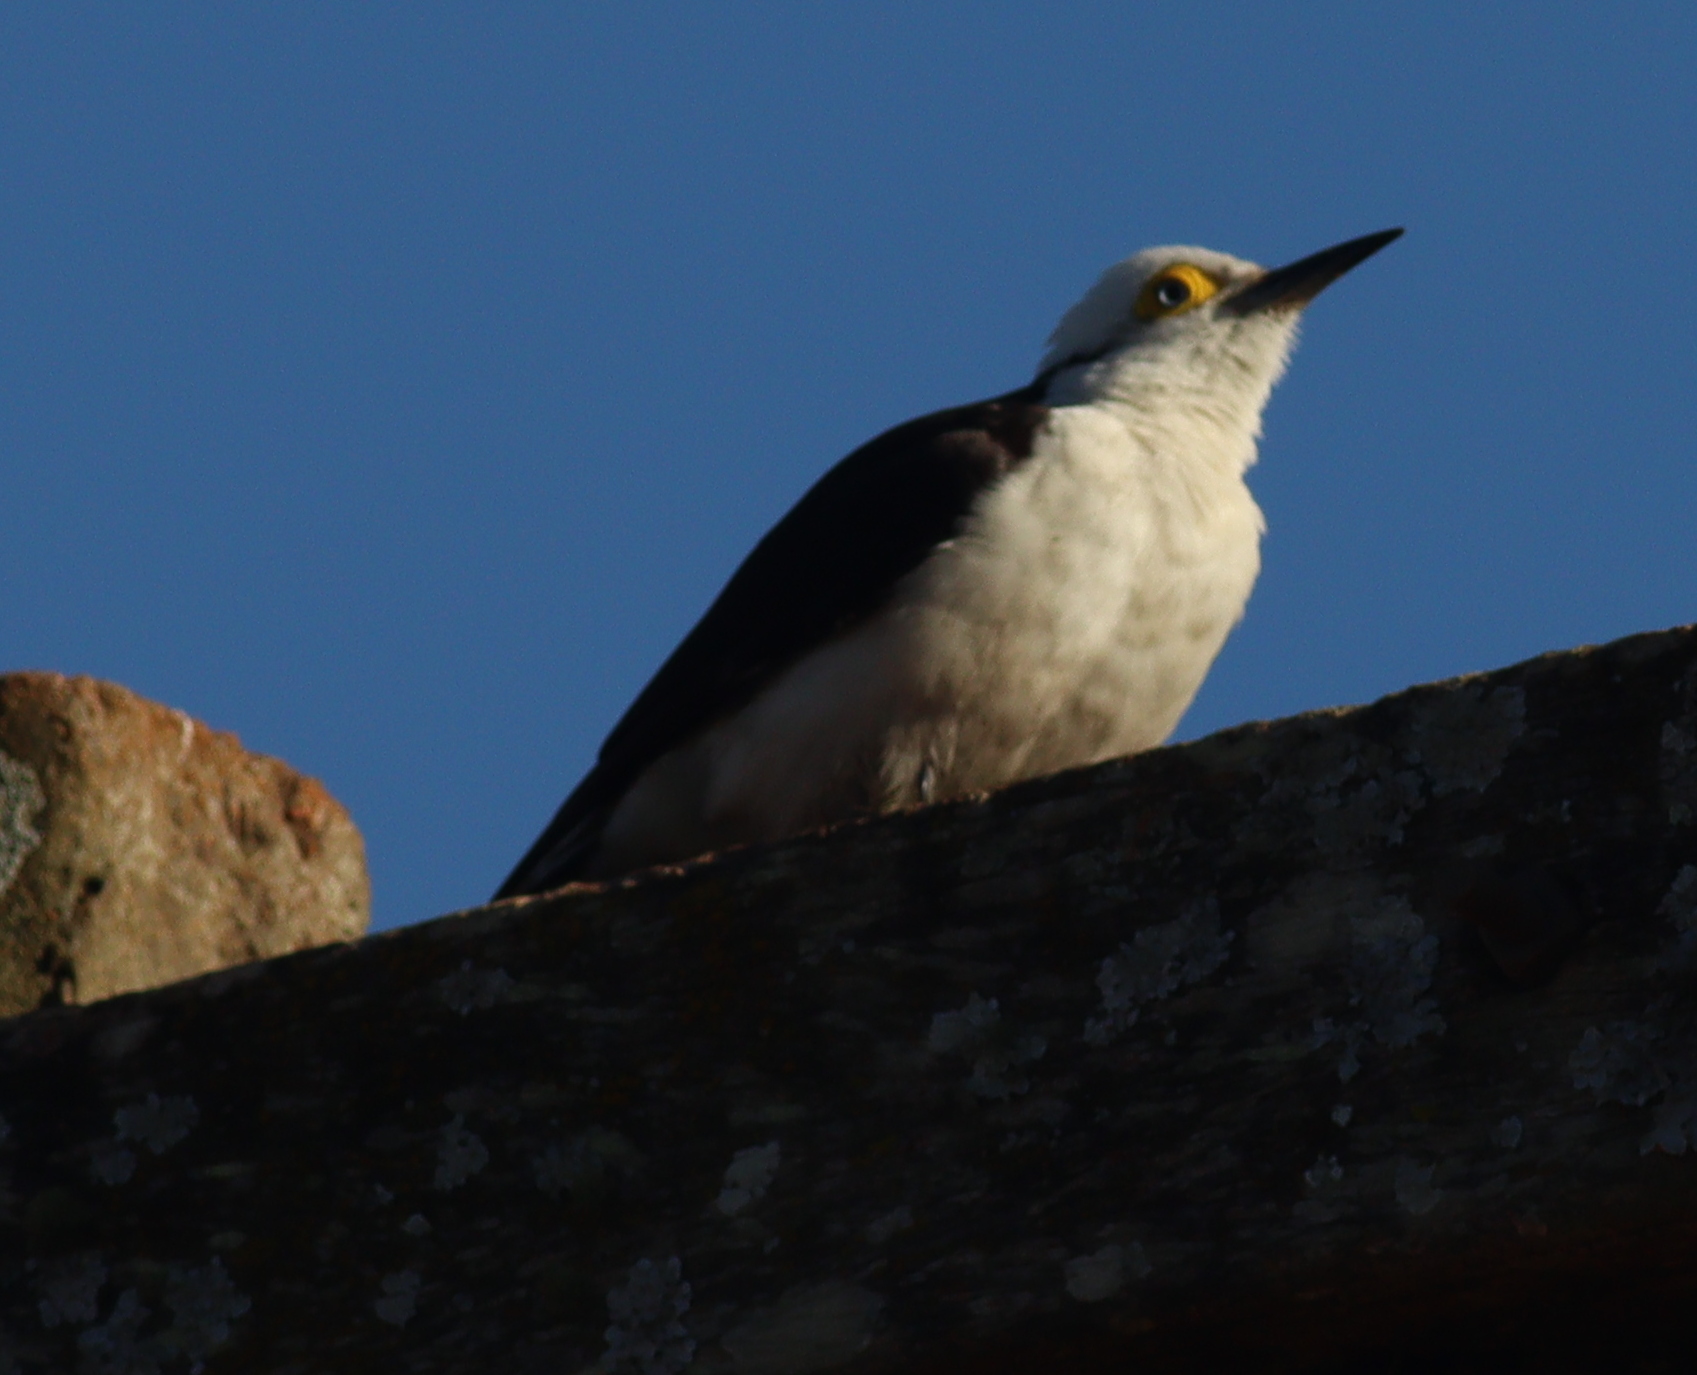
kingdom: Animalia
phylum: Chordata
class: Aves
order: Piciformes
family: Picidae
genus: Melanerpes
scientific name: Melanerpes candidus
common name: White woodpecker
